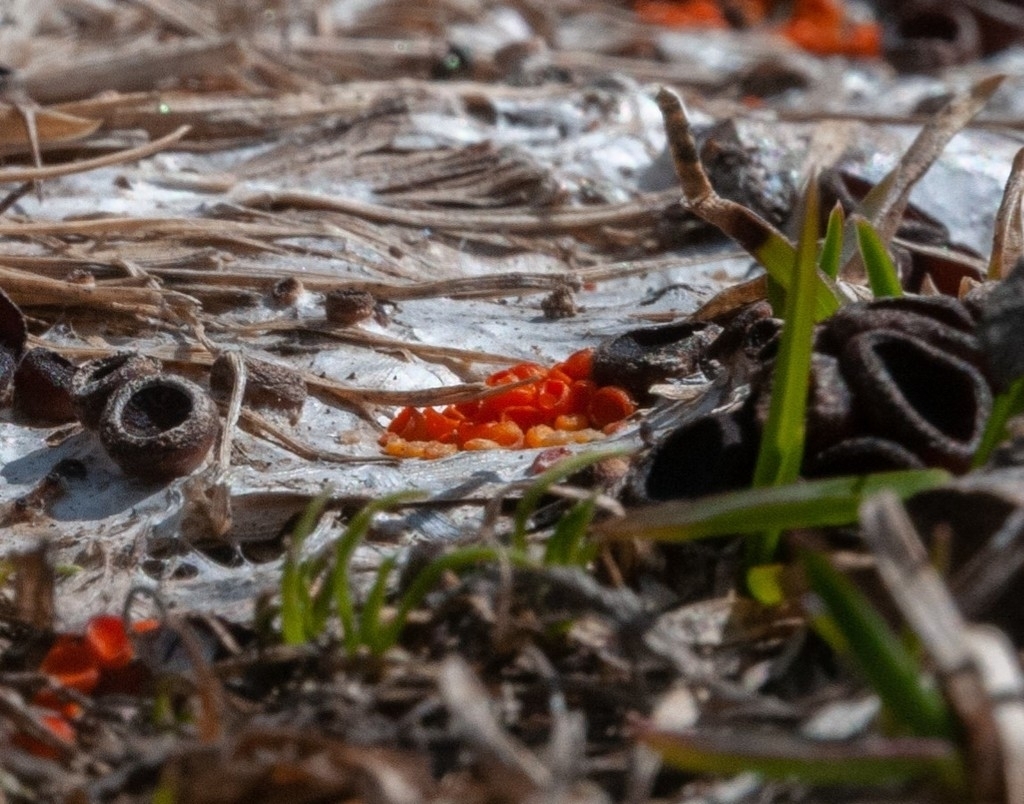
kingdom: Fungi
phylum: Ascomycota
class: Pezizomycetes
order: Pezizales
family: Pyronemataceae
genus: Byssonectria
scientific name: Byssonectria fusispora
